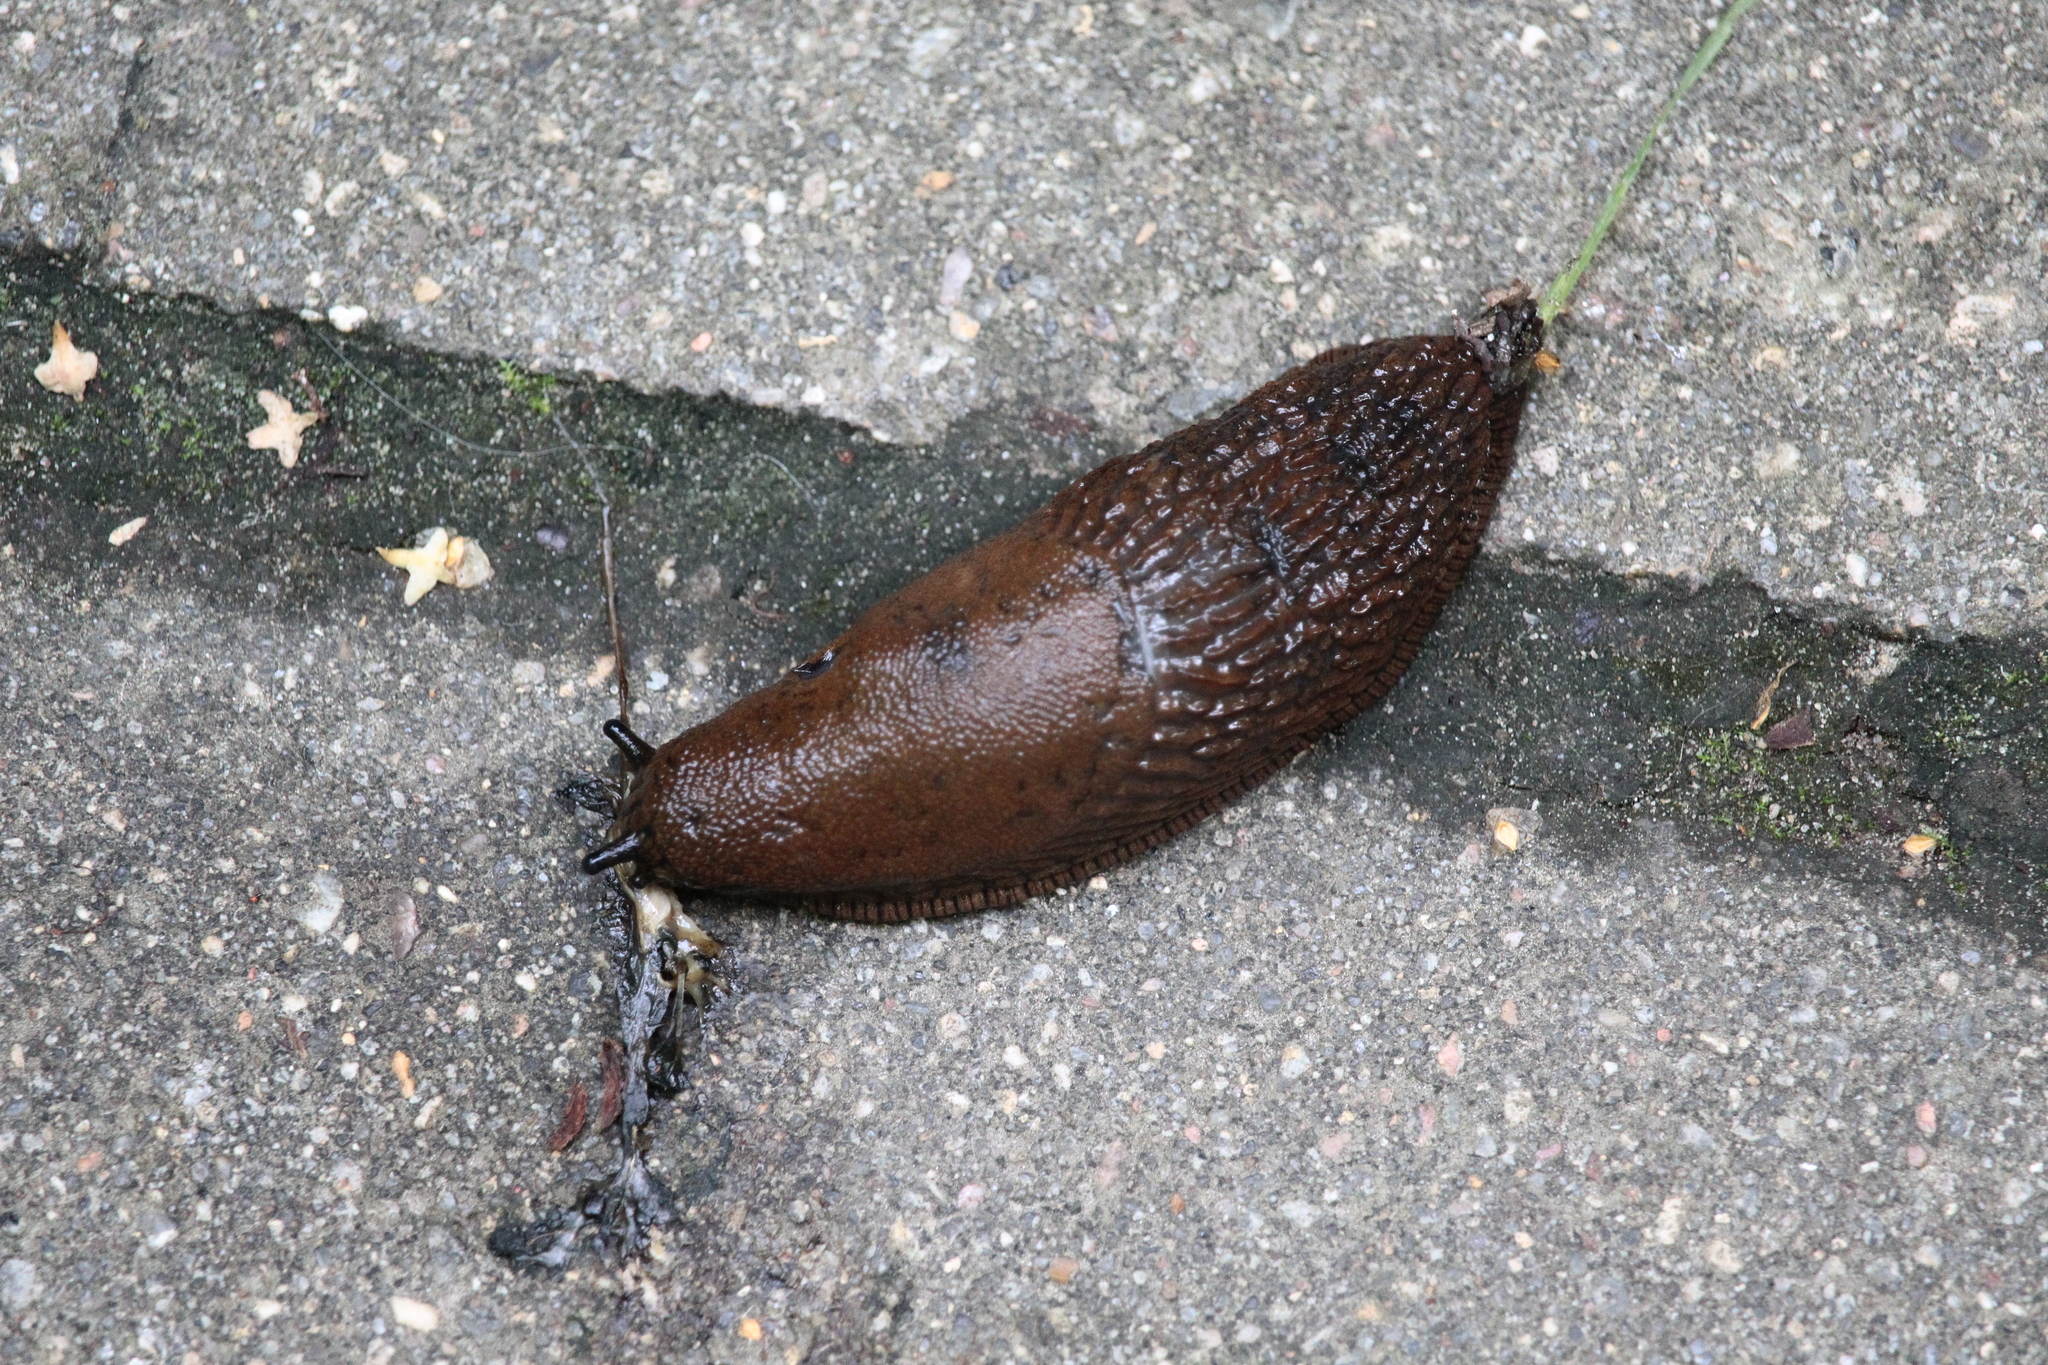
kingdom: Animalia
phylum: Mollusca
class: Gastropoda
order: Stylommatophora
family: Arionidae
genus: Arion
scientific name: Arion
